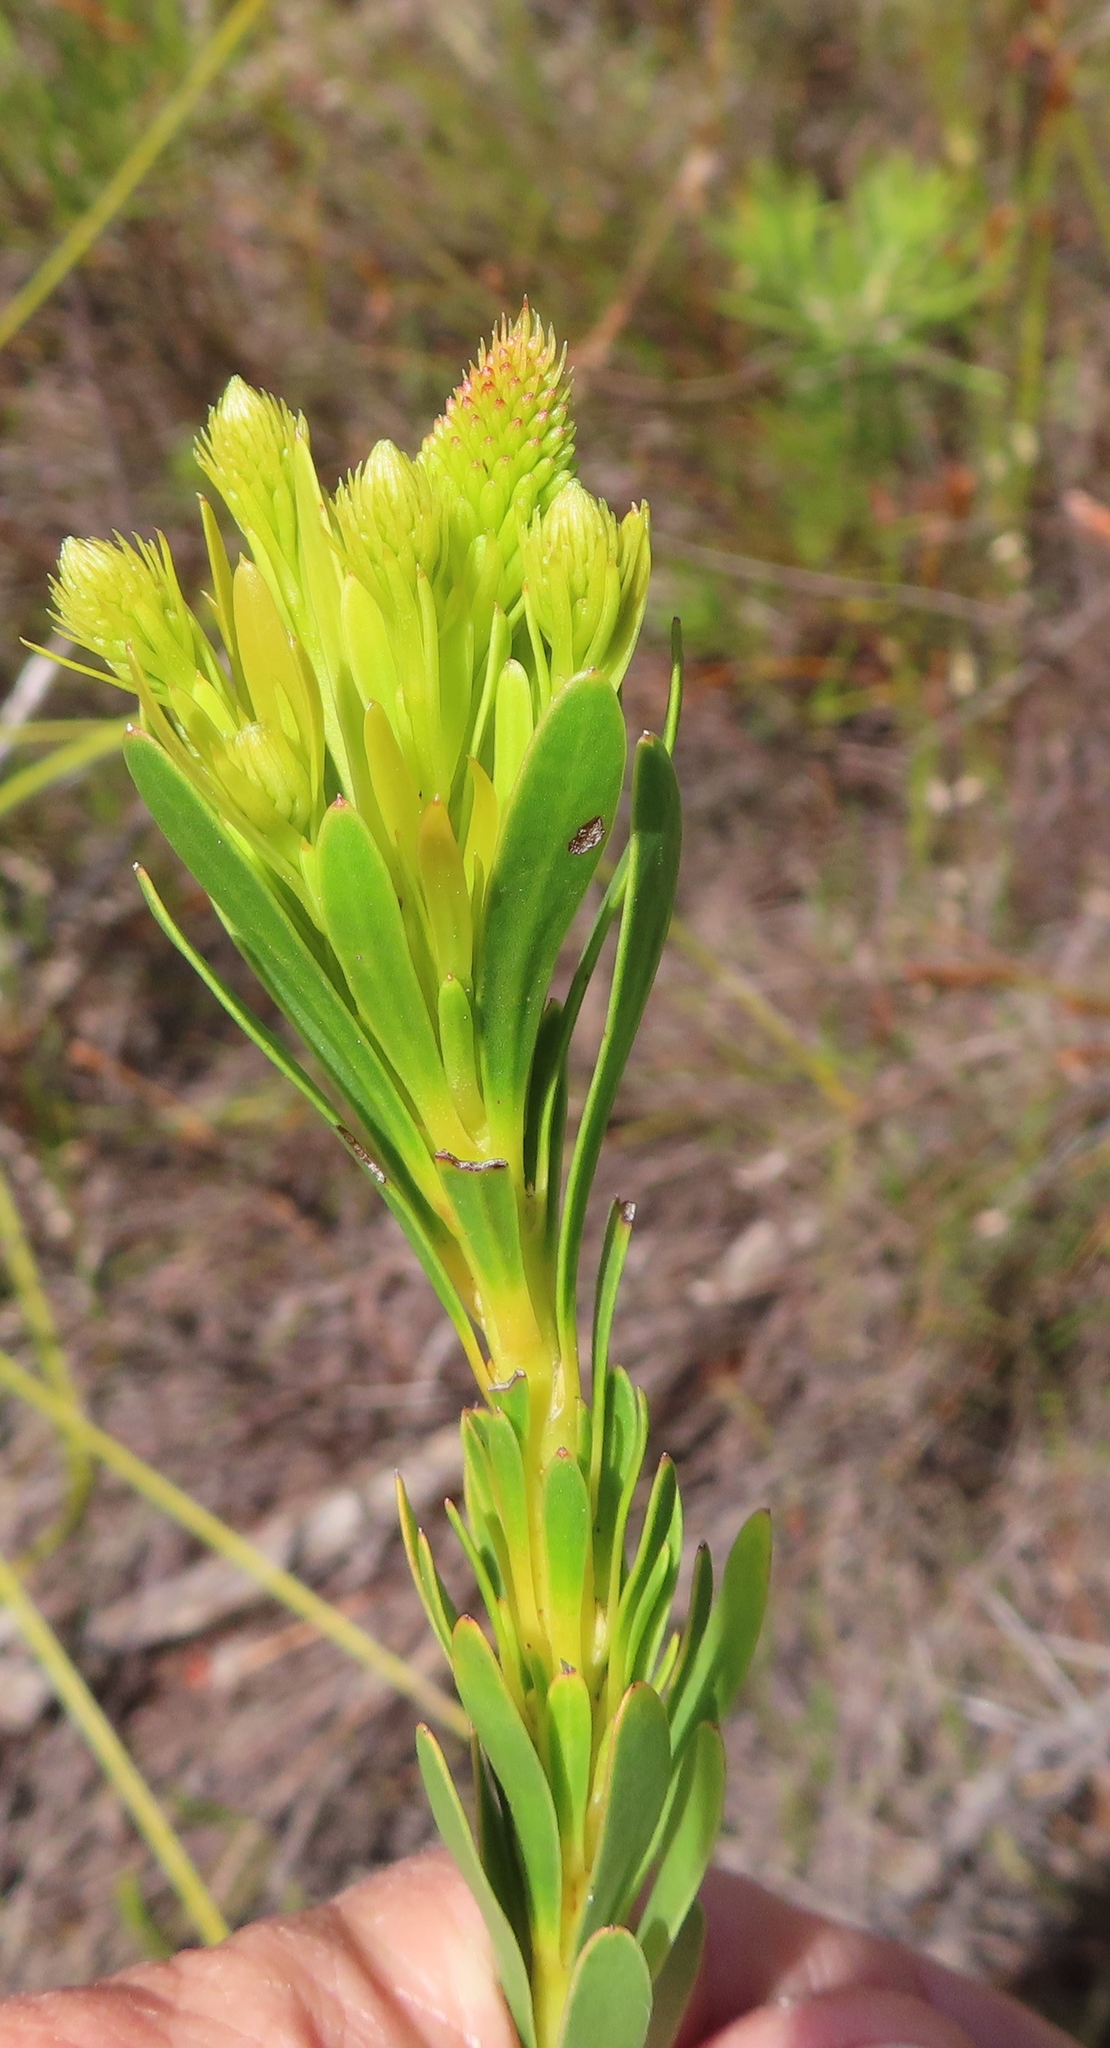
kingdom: Plantae
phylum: Tracheophyta
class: Magnoliopsida
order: Proteales
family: Proteaceae
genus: Aulax
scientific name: Aulax umbellata
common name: Broad-leaf featherbush
